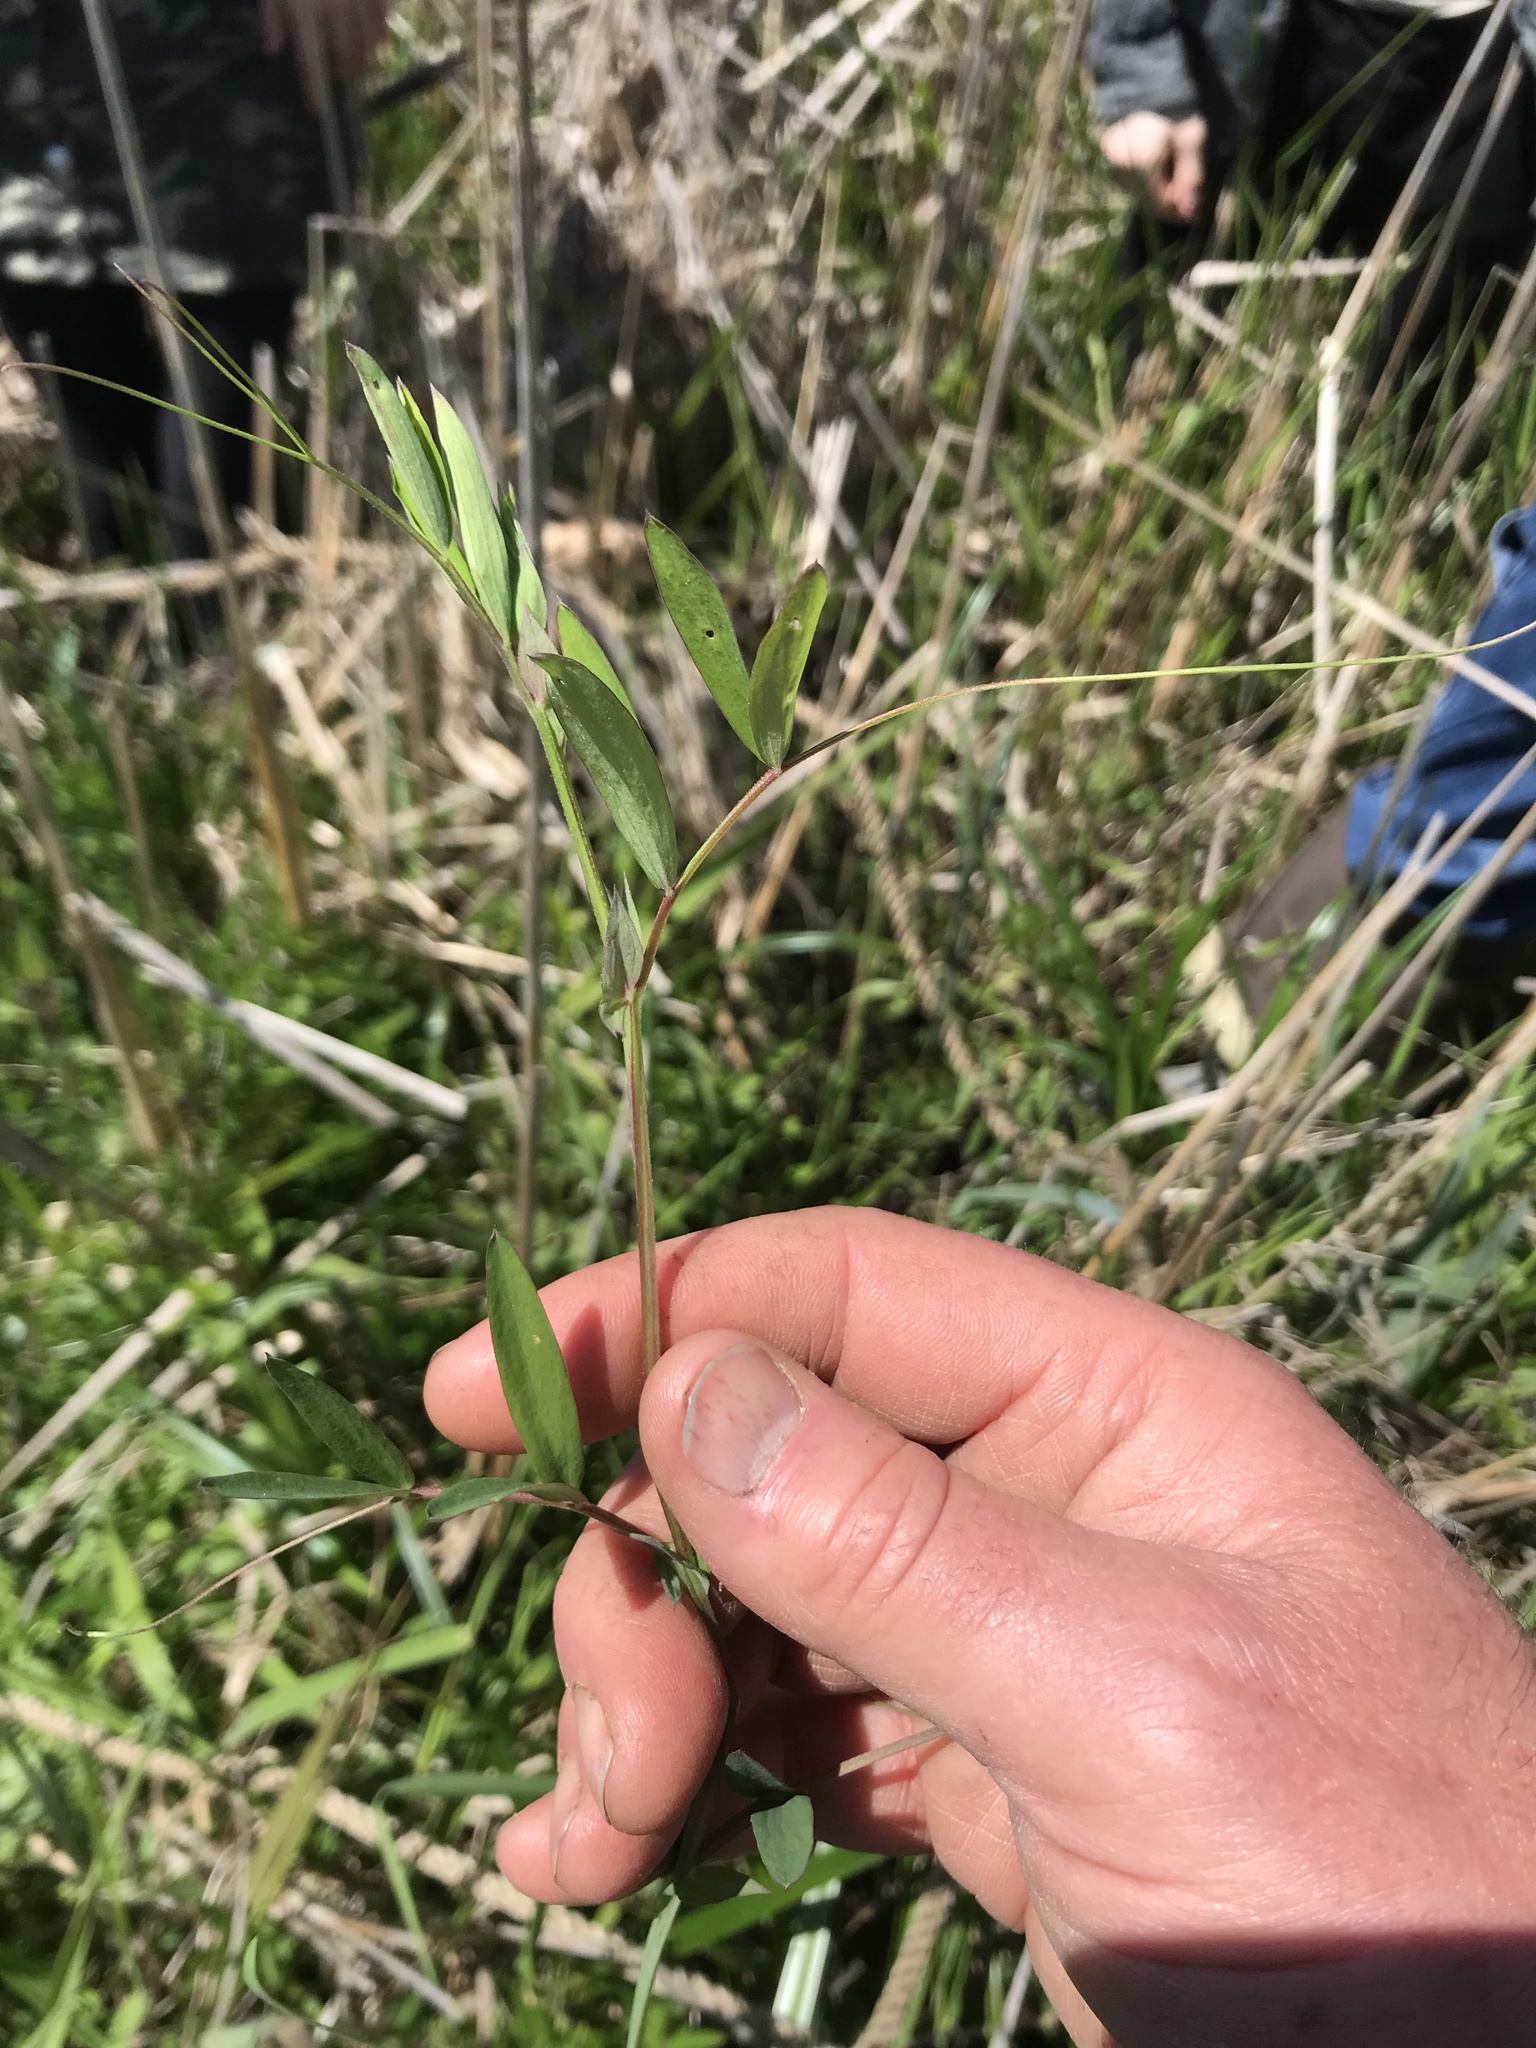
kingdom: Plantae
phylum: Tracheophyta
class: Magnoliopsida
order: Fabales
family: Fabaceae
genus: Lathyrus
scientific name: Lathyrus palustris
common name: Marsh pea
